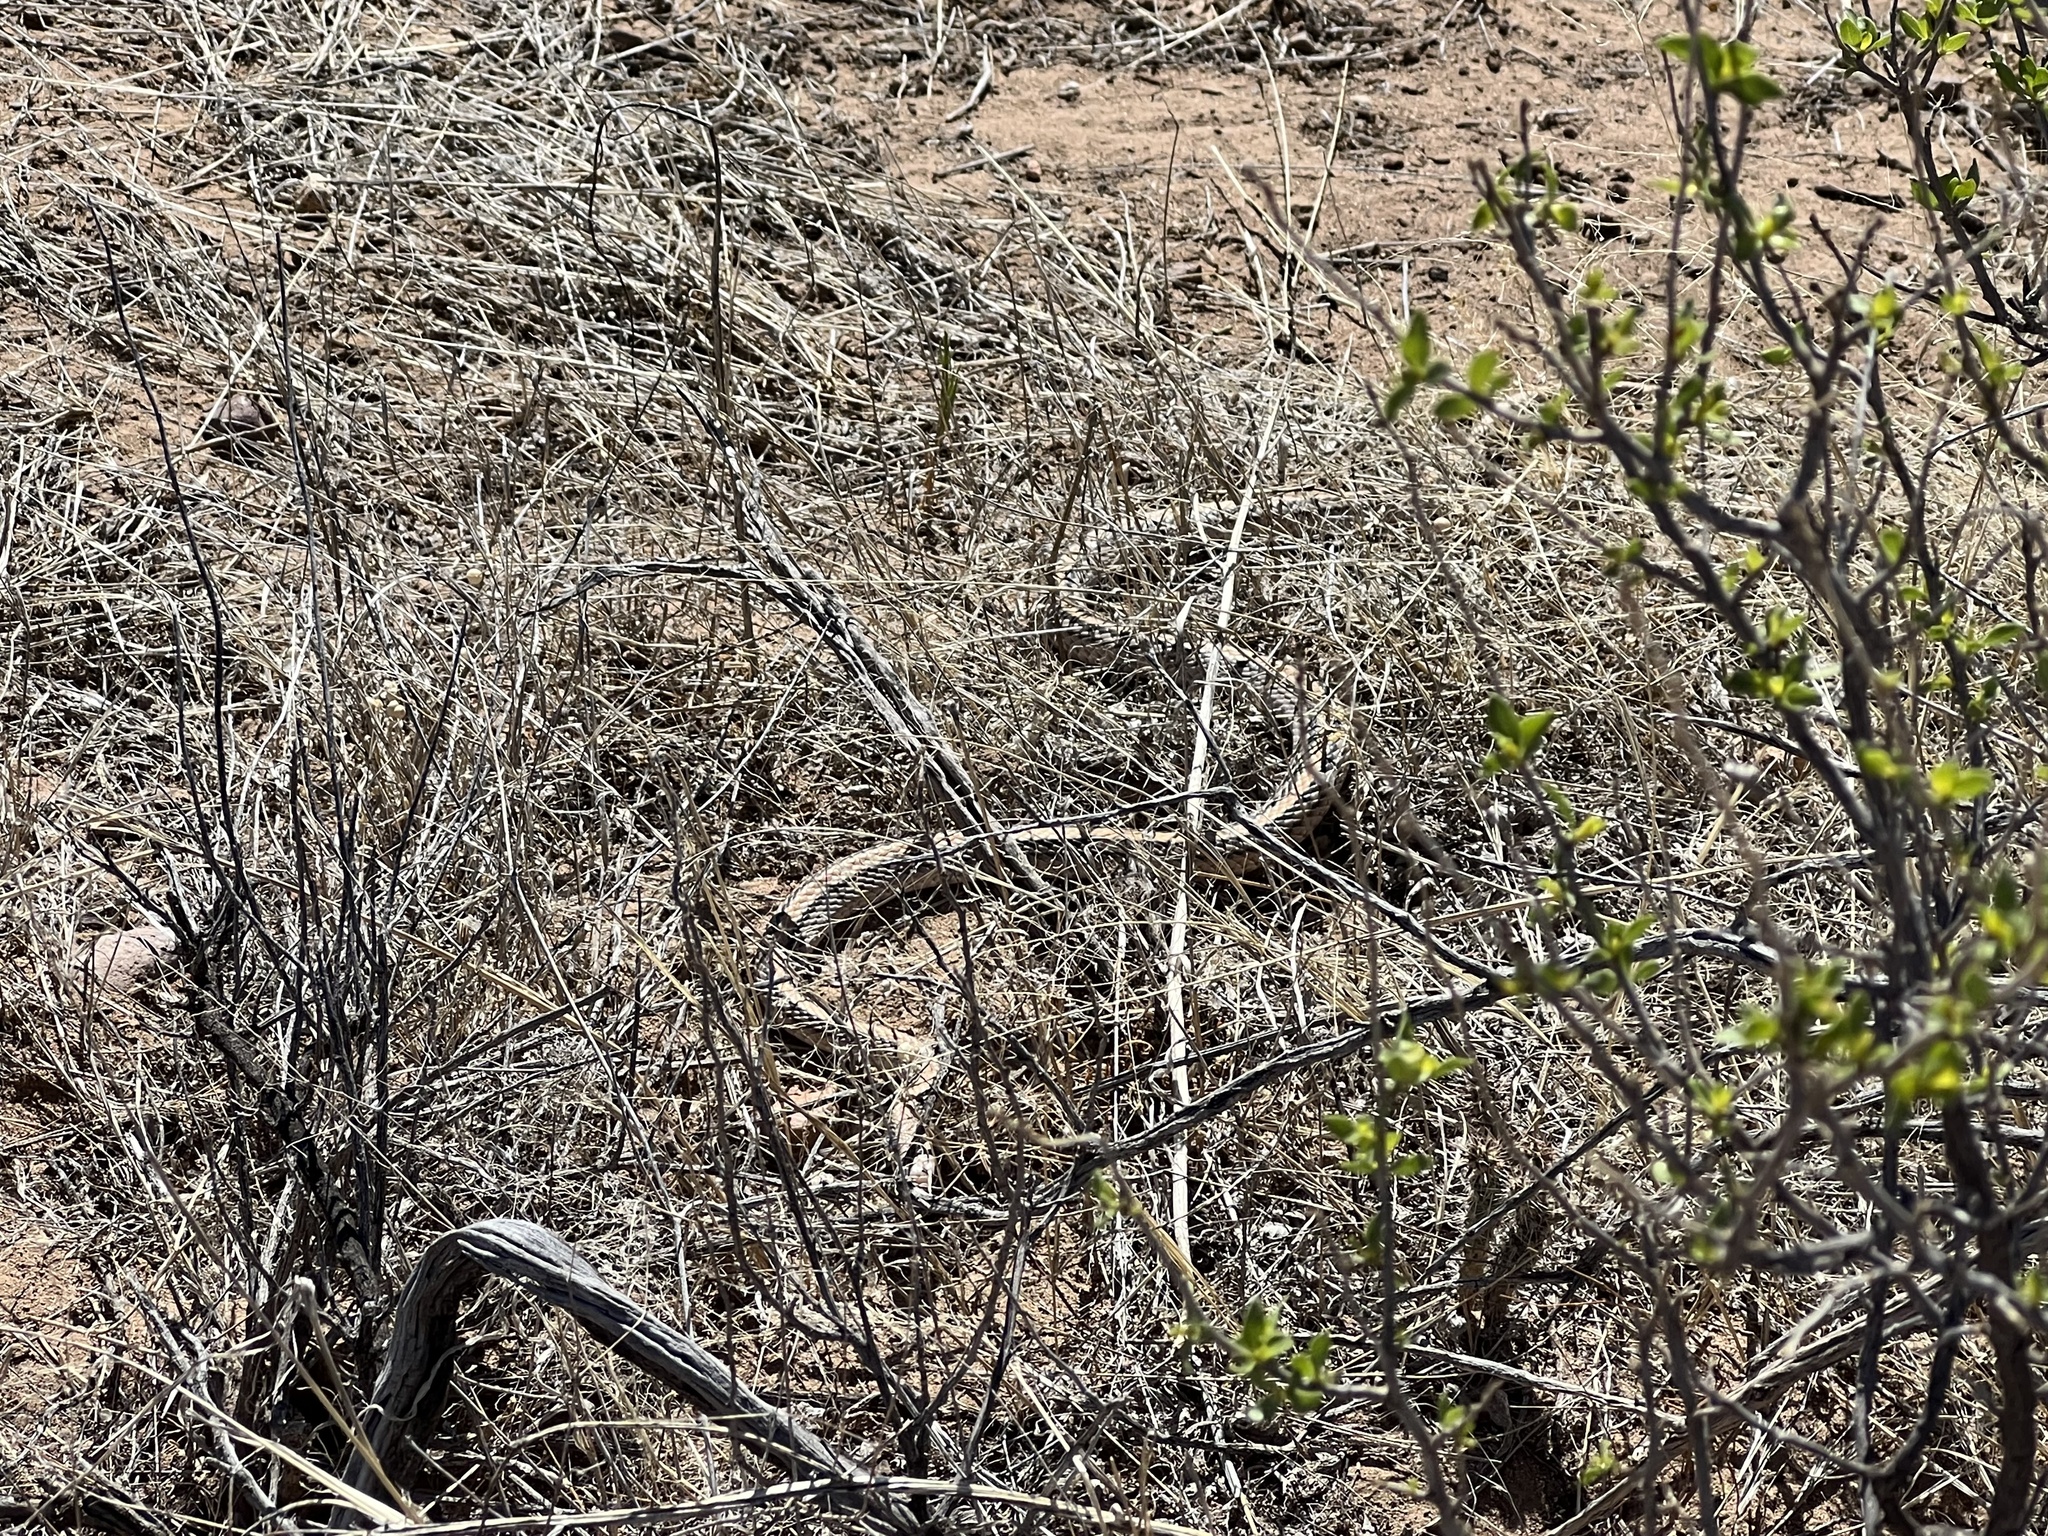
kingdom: Animalia
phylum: Chordata
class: Squamata
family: Colubridae
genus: Salvadora
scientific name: Salvadora deserticola
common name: Big bend patchnose snake
